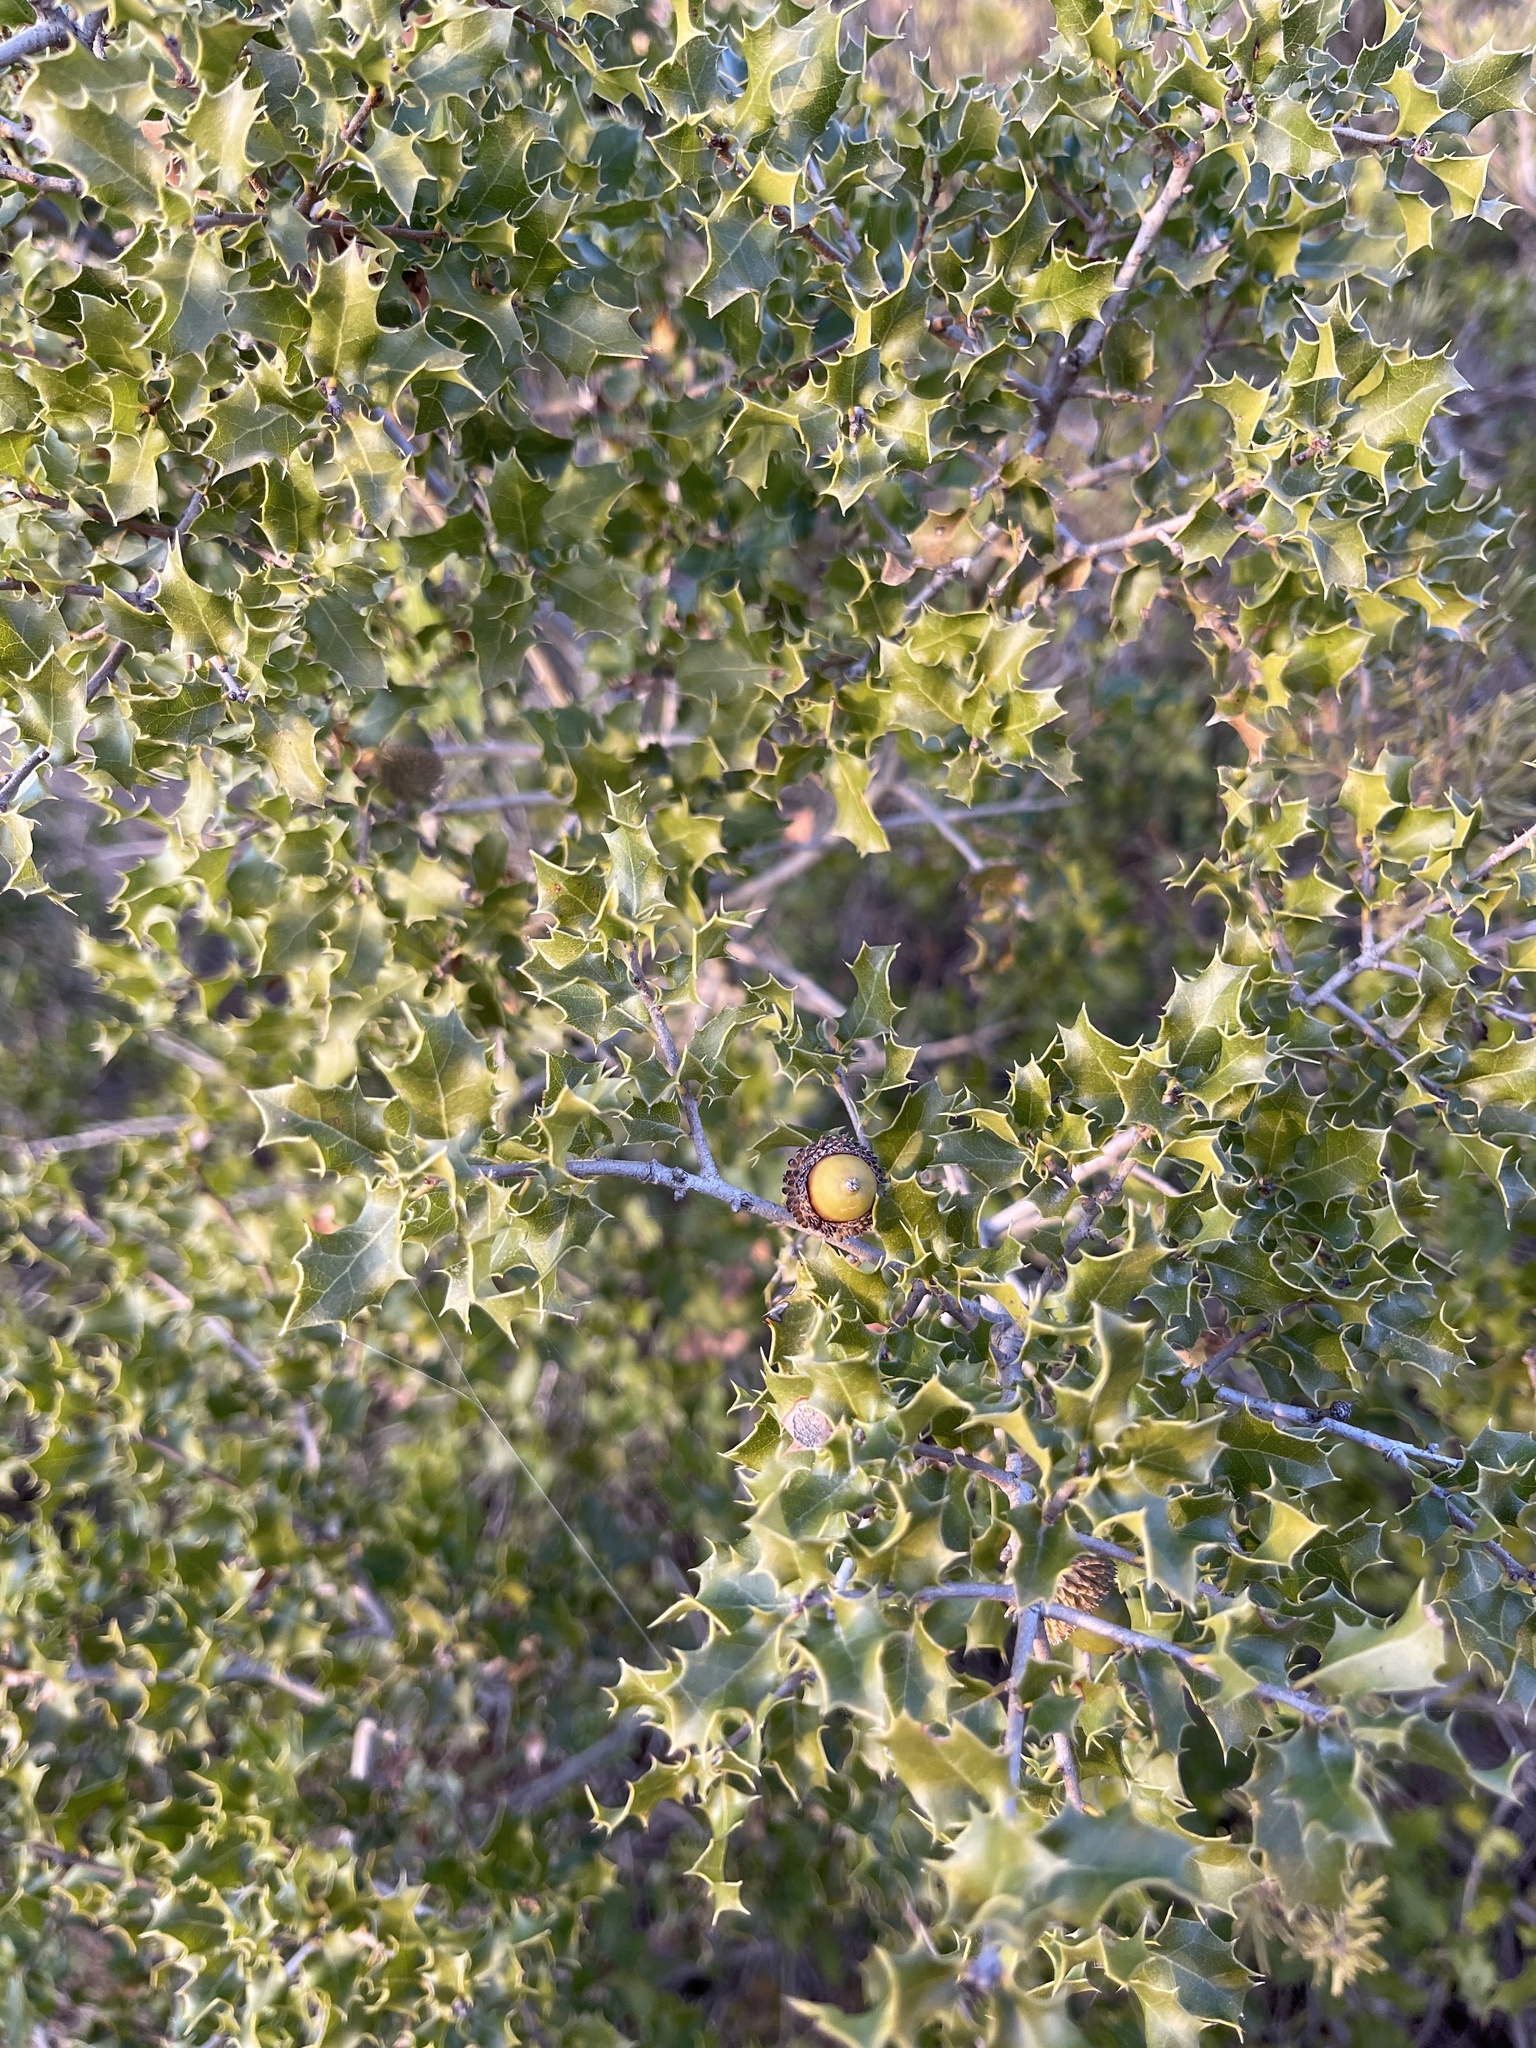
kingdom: Plantae
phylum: Tracheophyta
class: Magnoliopsida
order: Fagales
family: Fagaceae
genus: Quercus
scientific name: Quercus coccifera
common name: Kermes oak
